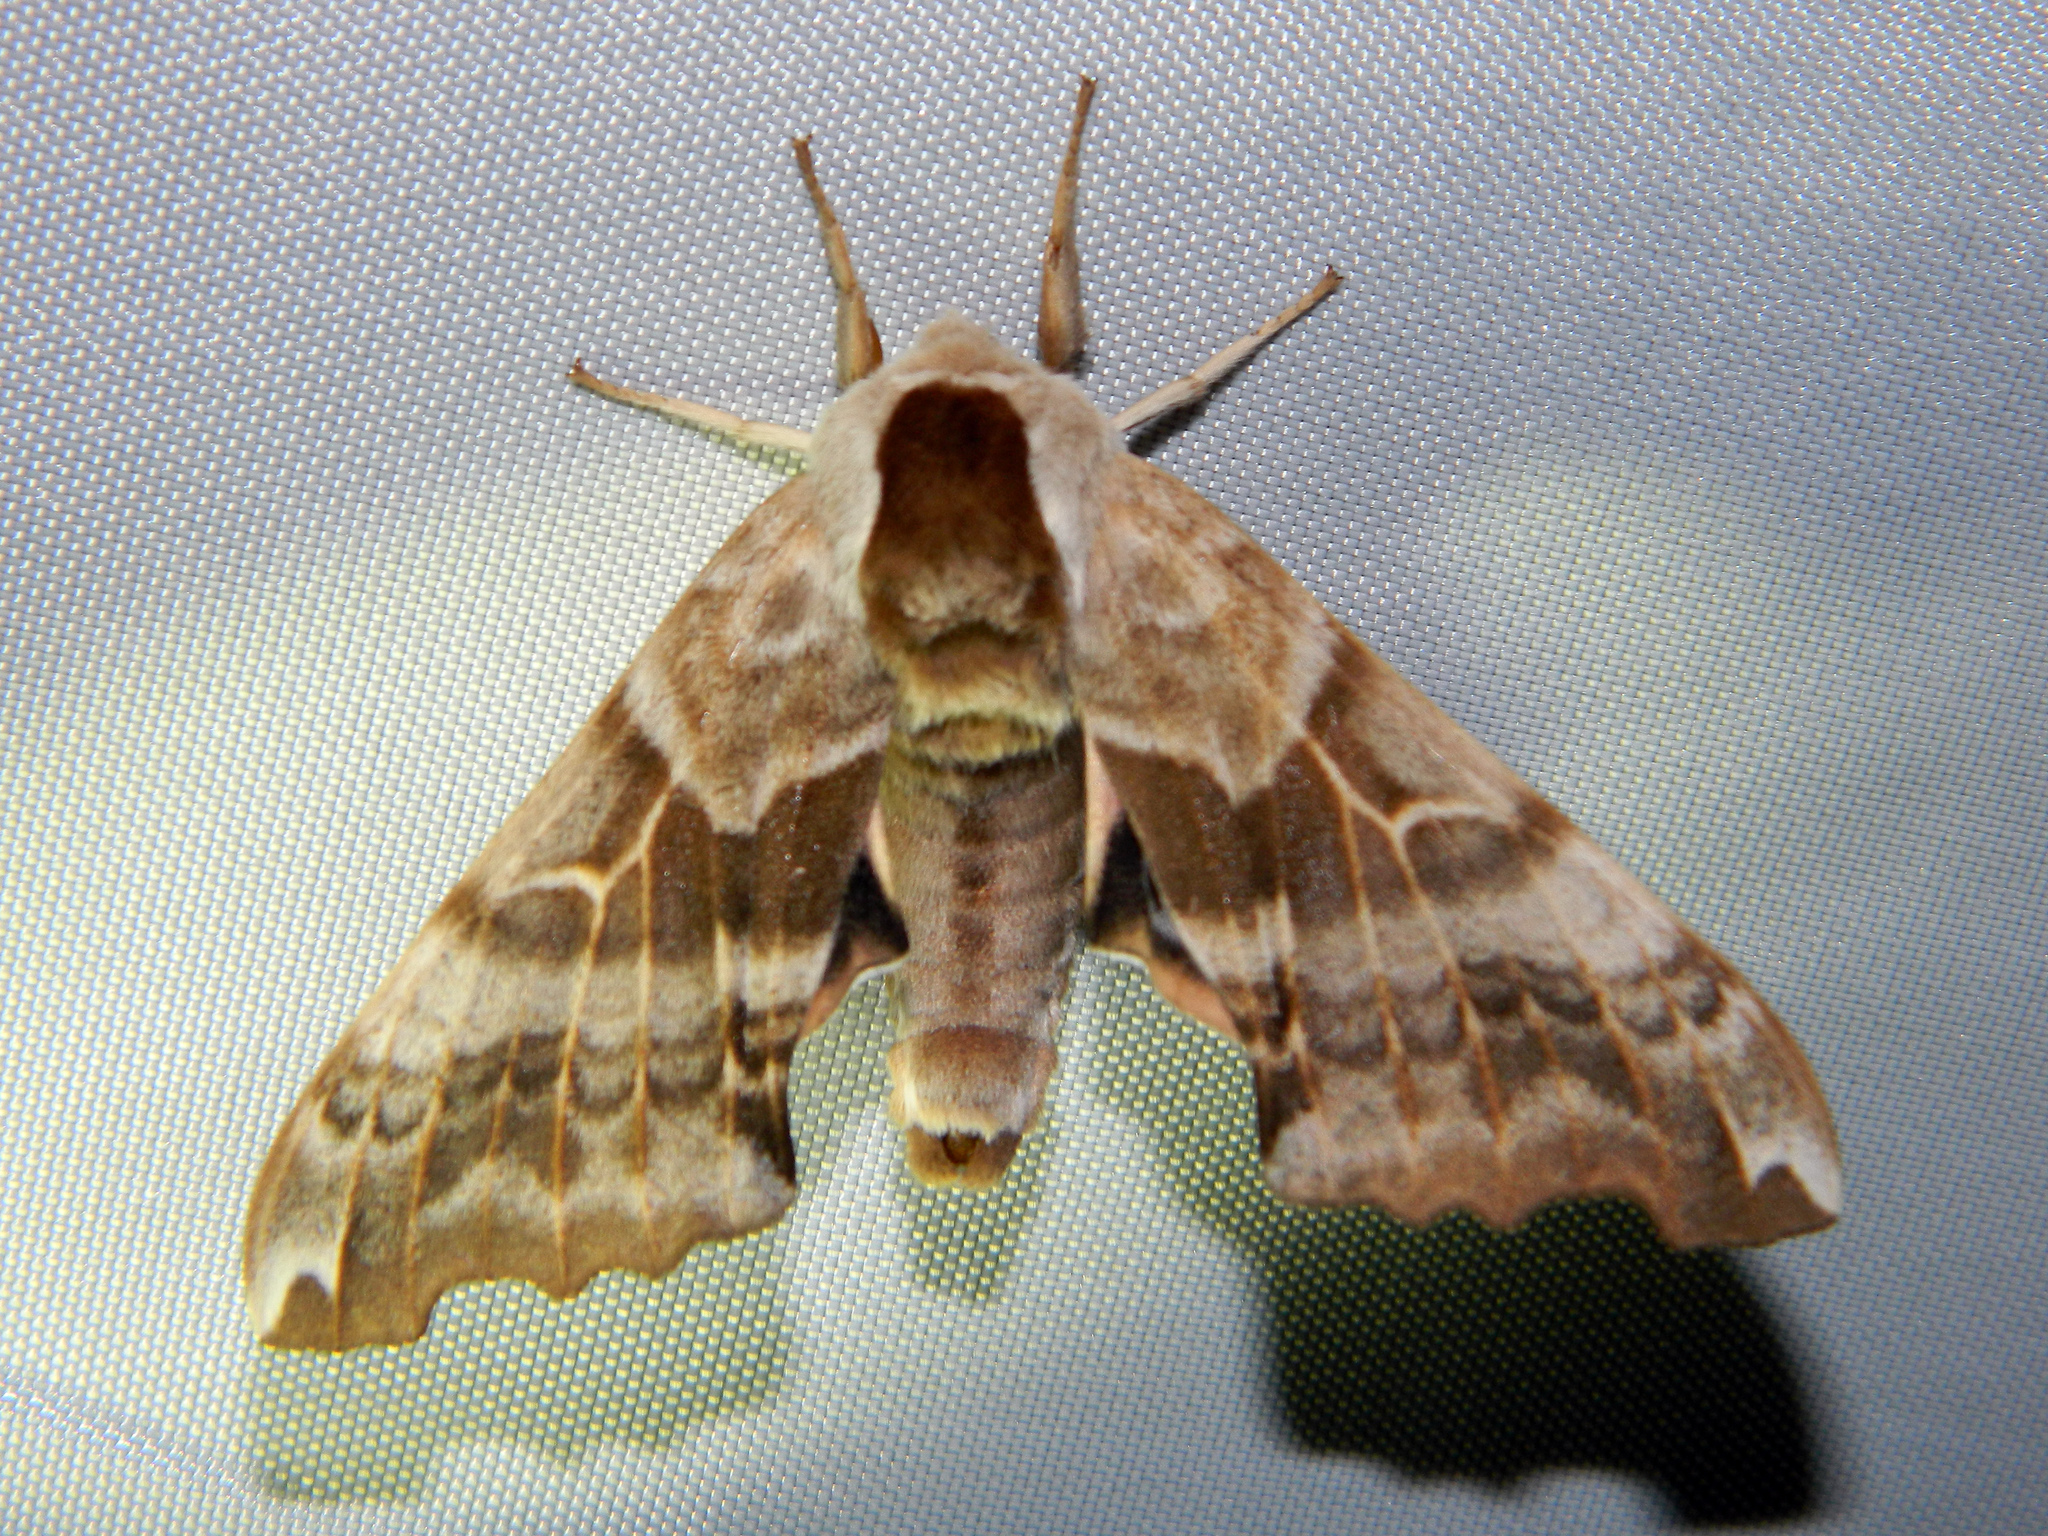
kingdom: Animalia
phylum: Arthropoda
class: Insecta
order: Lepidoptera
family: Sphingidae
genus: Smerinthus
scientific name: Smerinthus cerisyi
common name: Cerisy's sphinx moth
